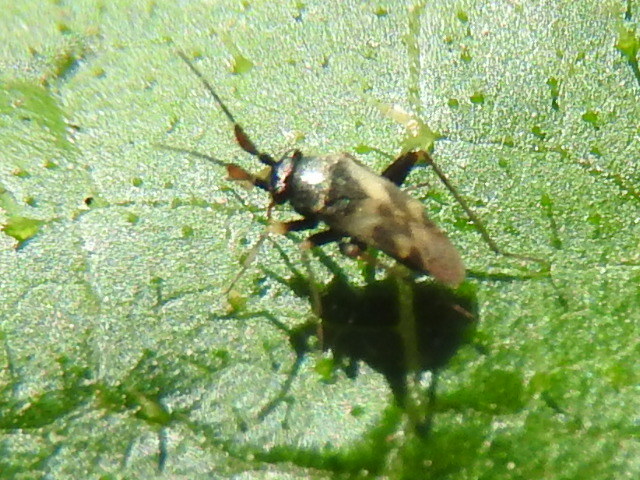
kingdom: Animalia
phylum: Arthropoda
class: Insecta
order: Hemiptera
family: Miridae
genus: Spanagonicus
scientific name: Spanagonicus albofasciatus
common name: Whitemarked fleahopper
